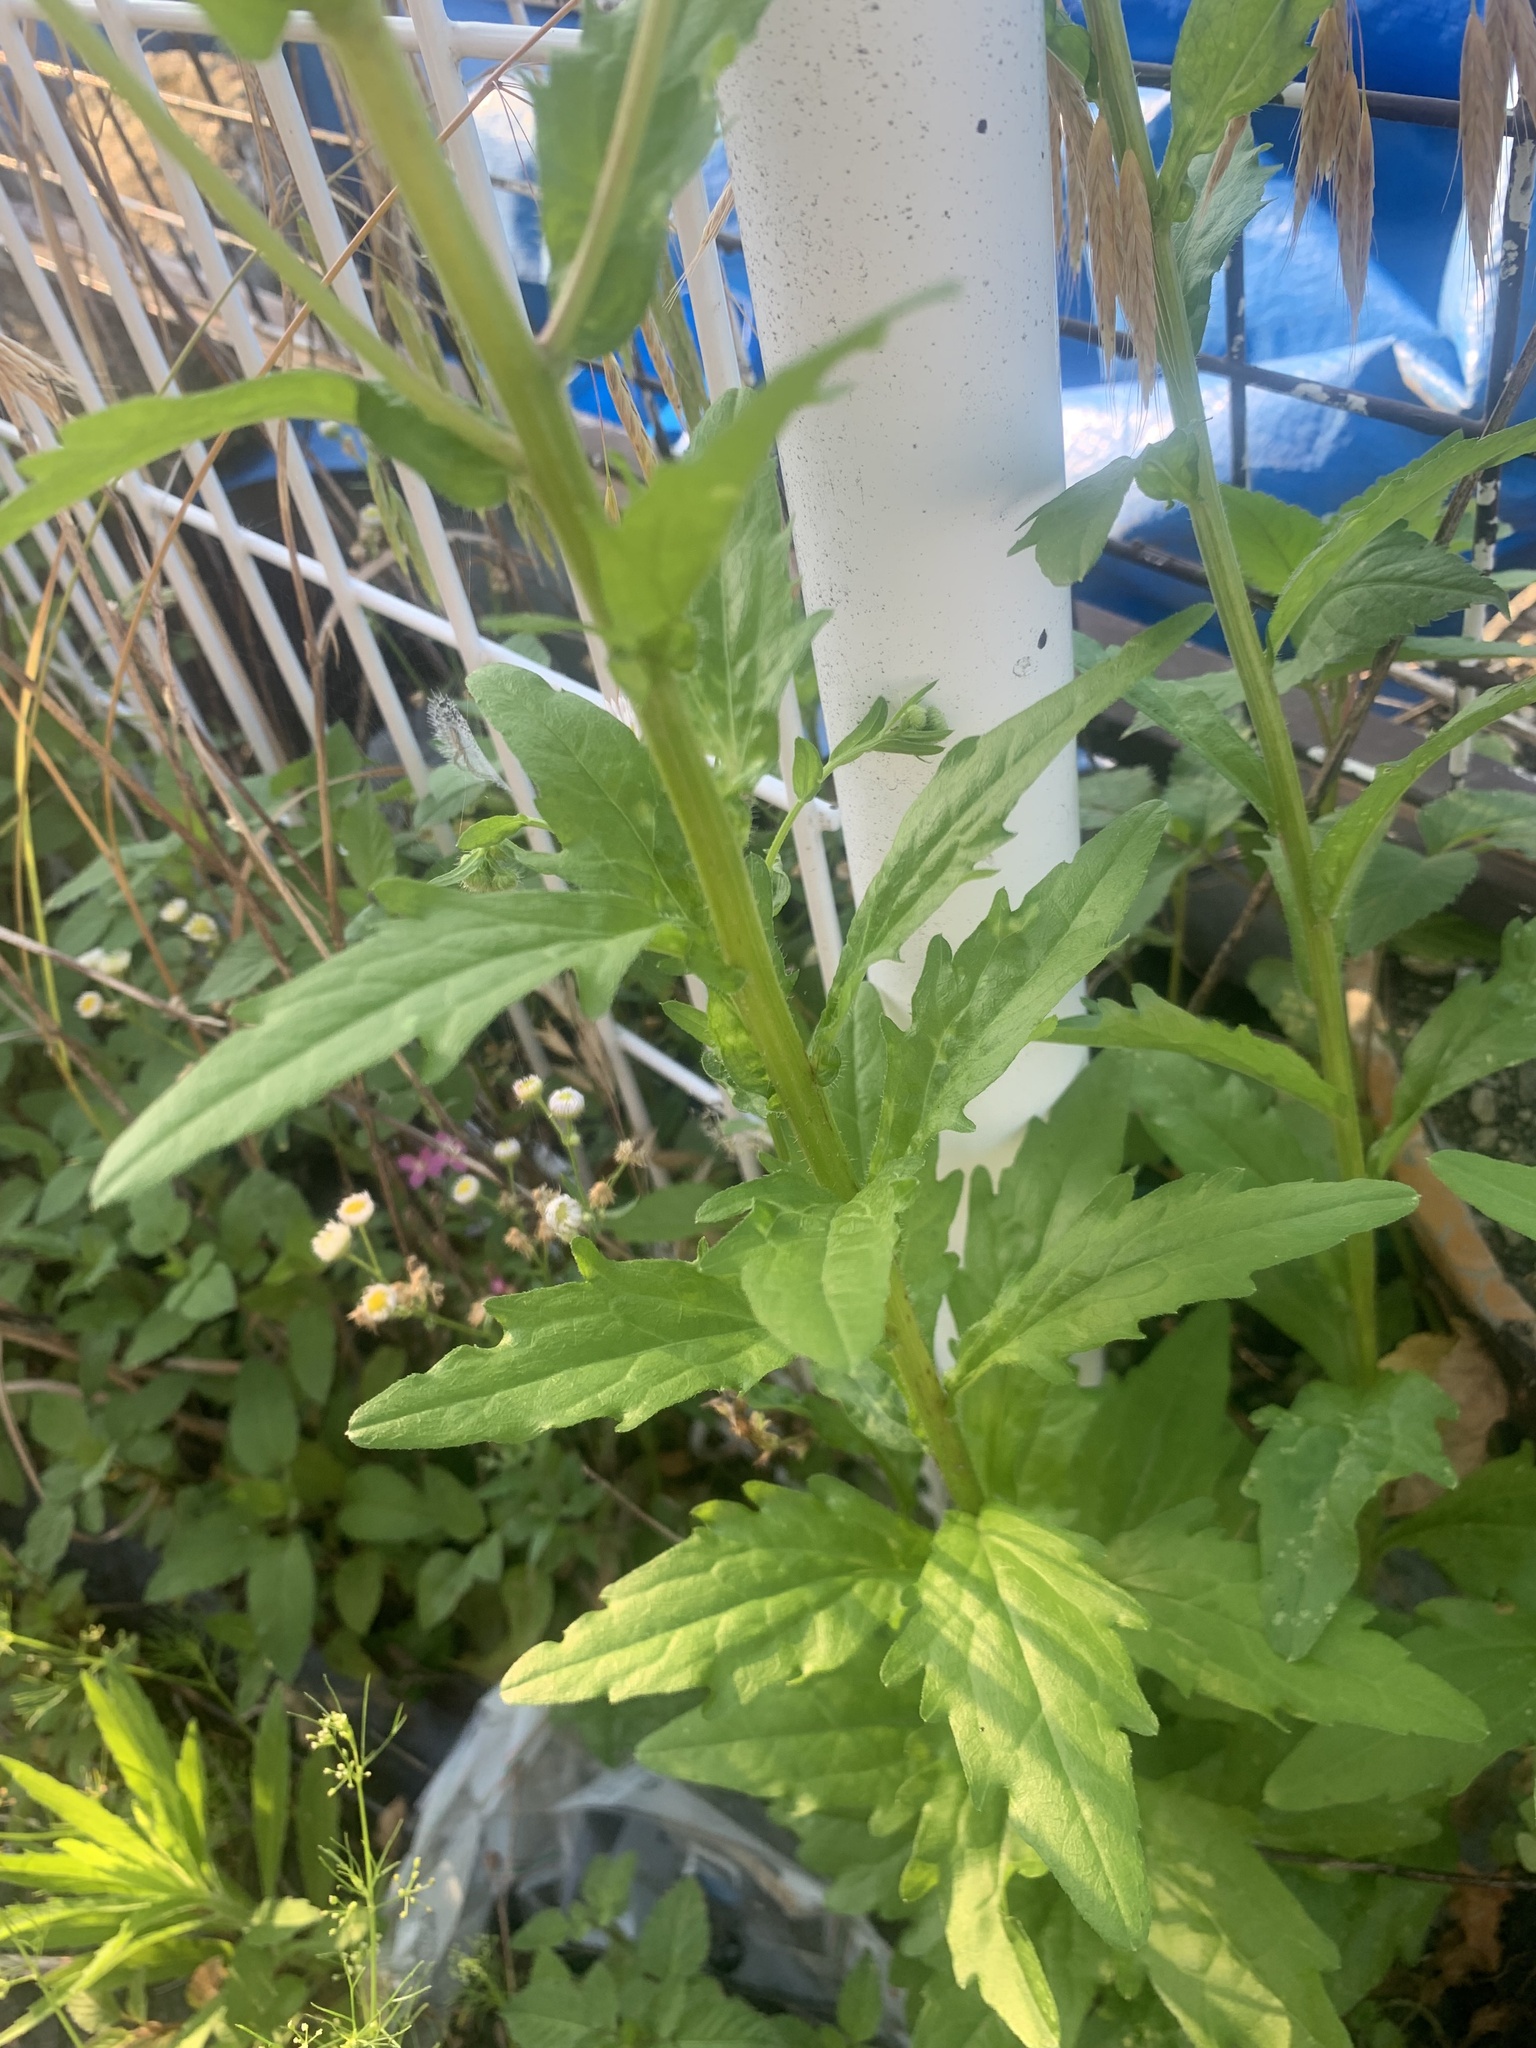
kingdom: Plantae
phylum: Tracheophyta
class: Magnoliopsida
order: Asterales
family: Asteraceae
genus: Erigeron
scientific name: Erigeron annuus
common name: Tall fleabane
